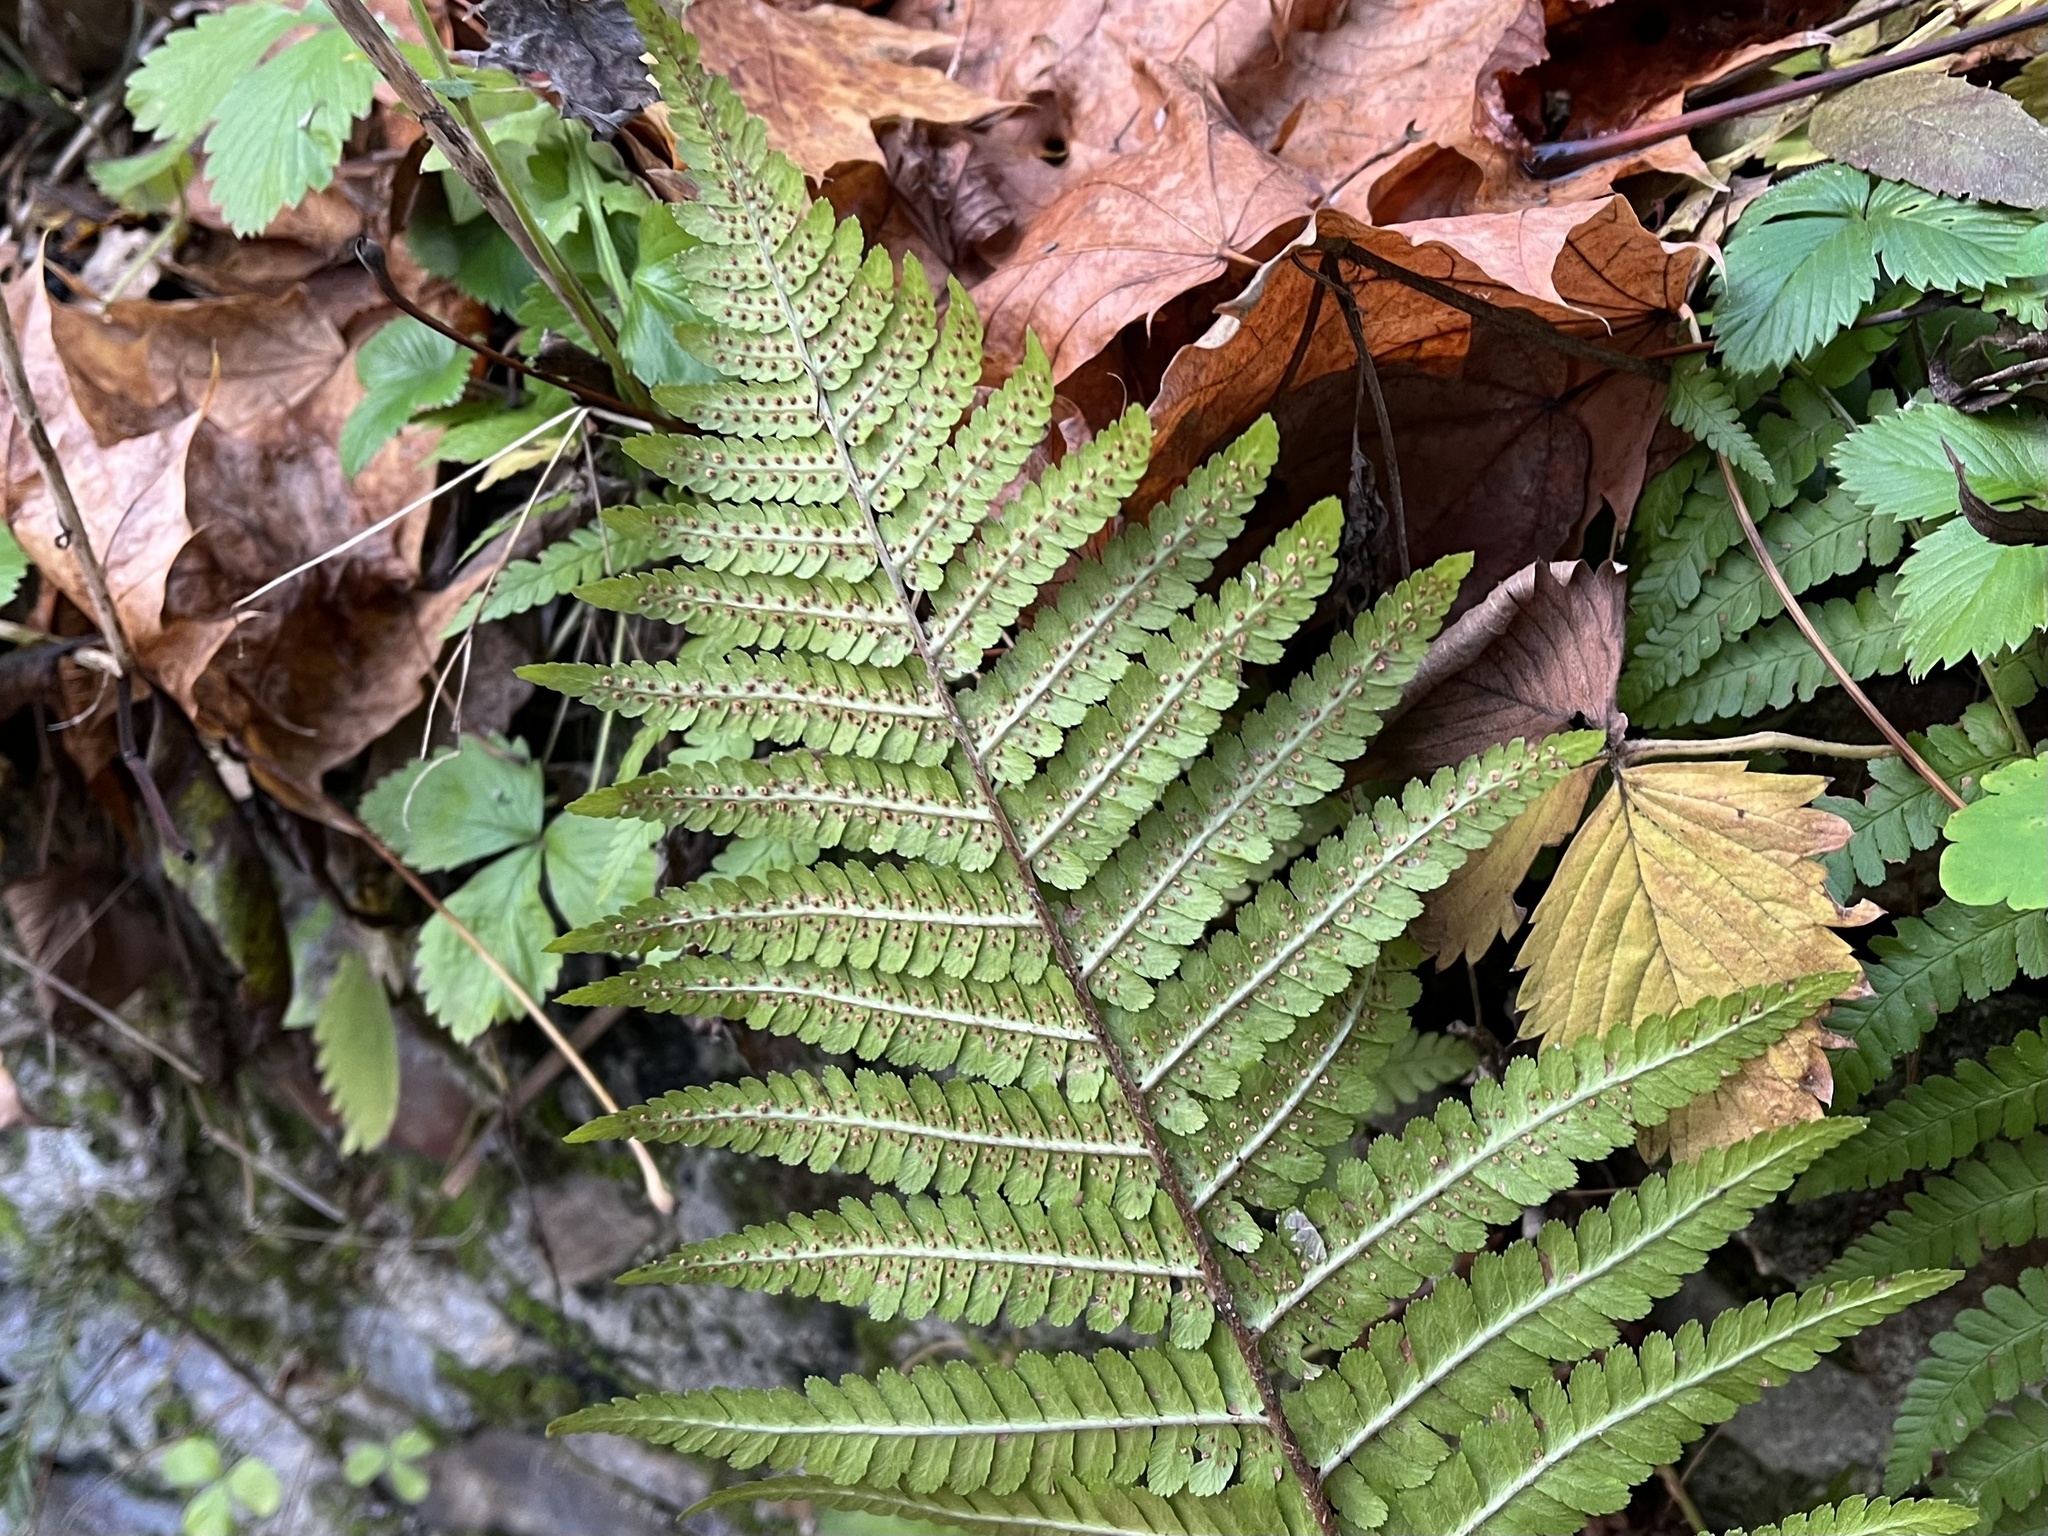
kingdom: Plantae
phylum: Tracheophyta
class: Polypodiopsida
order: Polypodiales
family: Dryopteridaceae
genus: Dryopteris
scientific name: Dryopteris filix-mas
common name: Male fern
